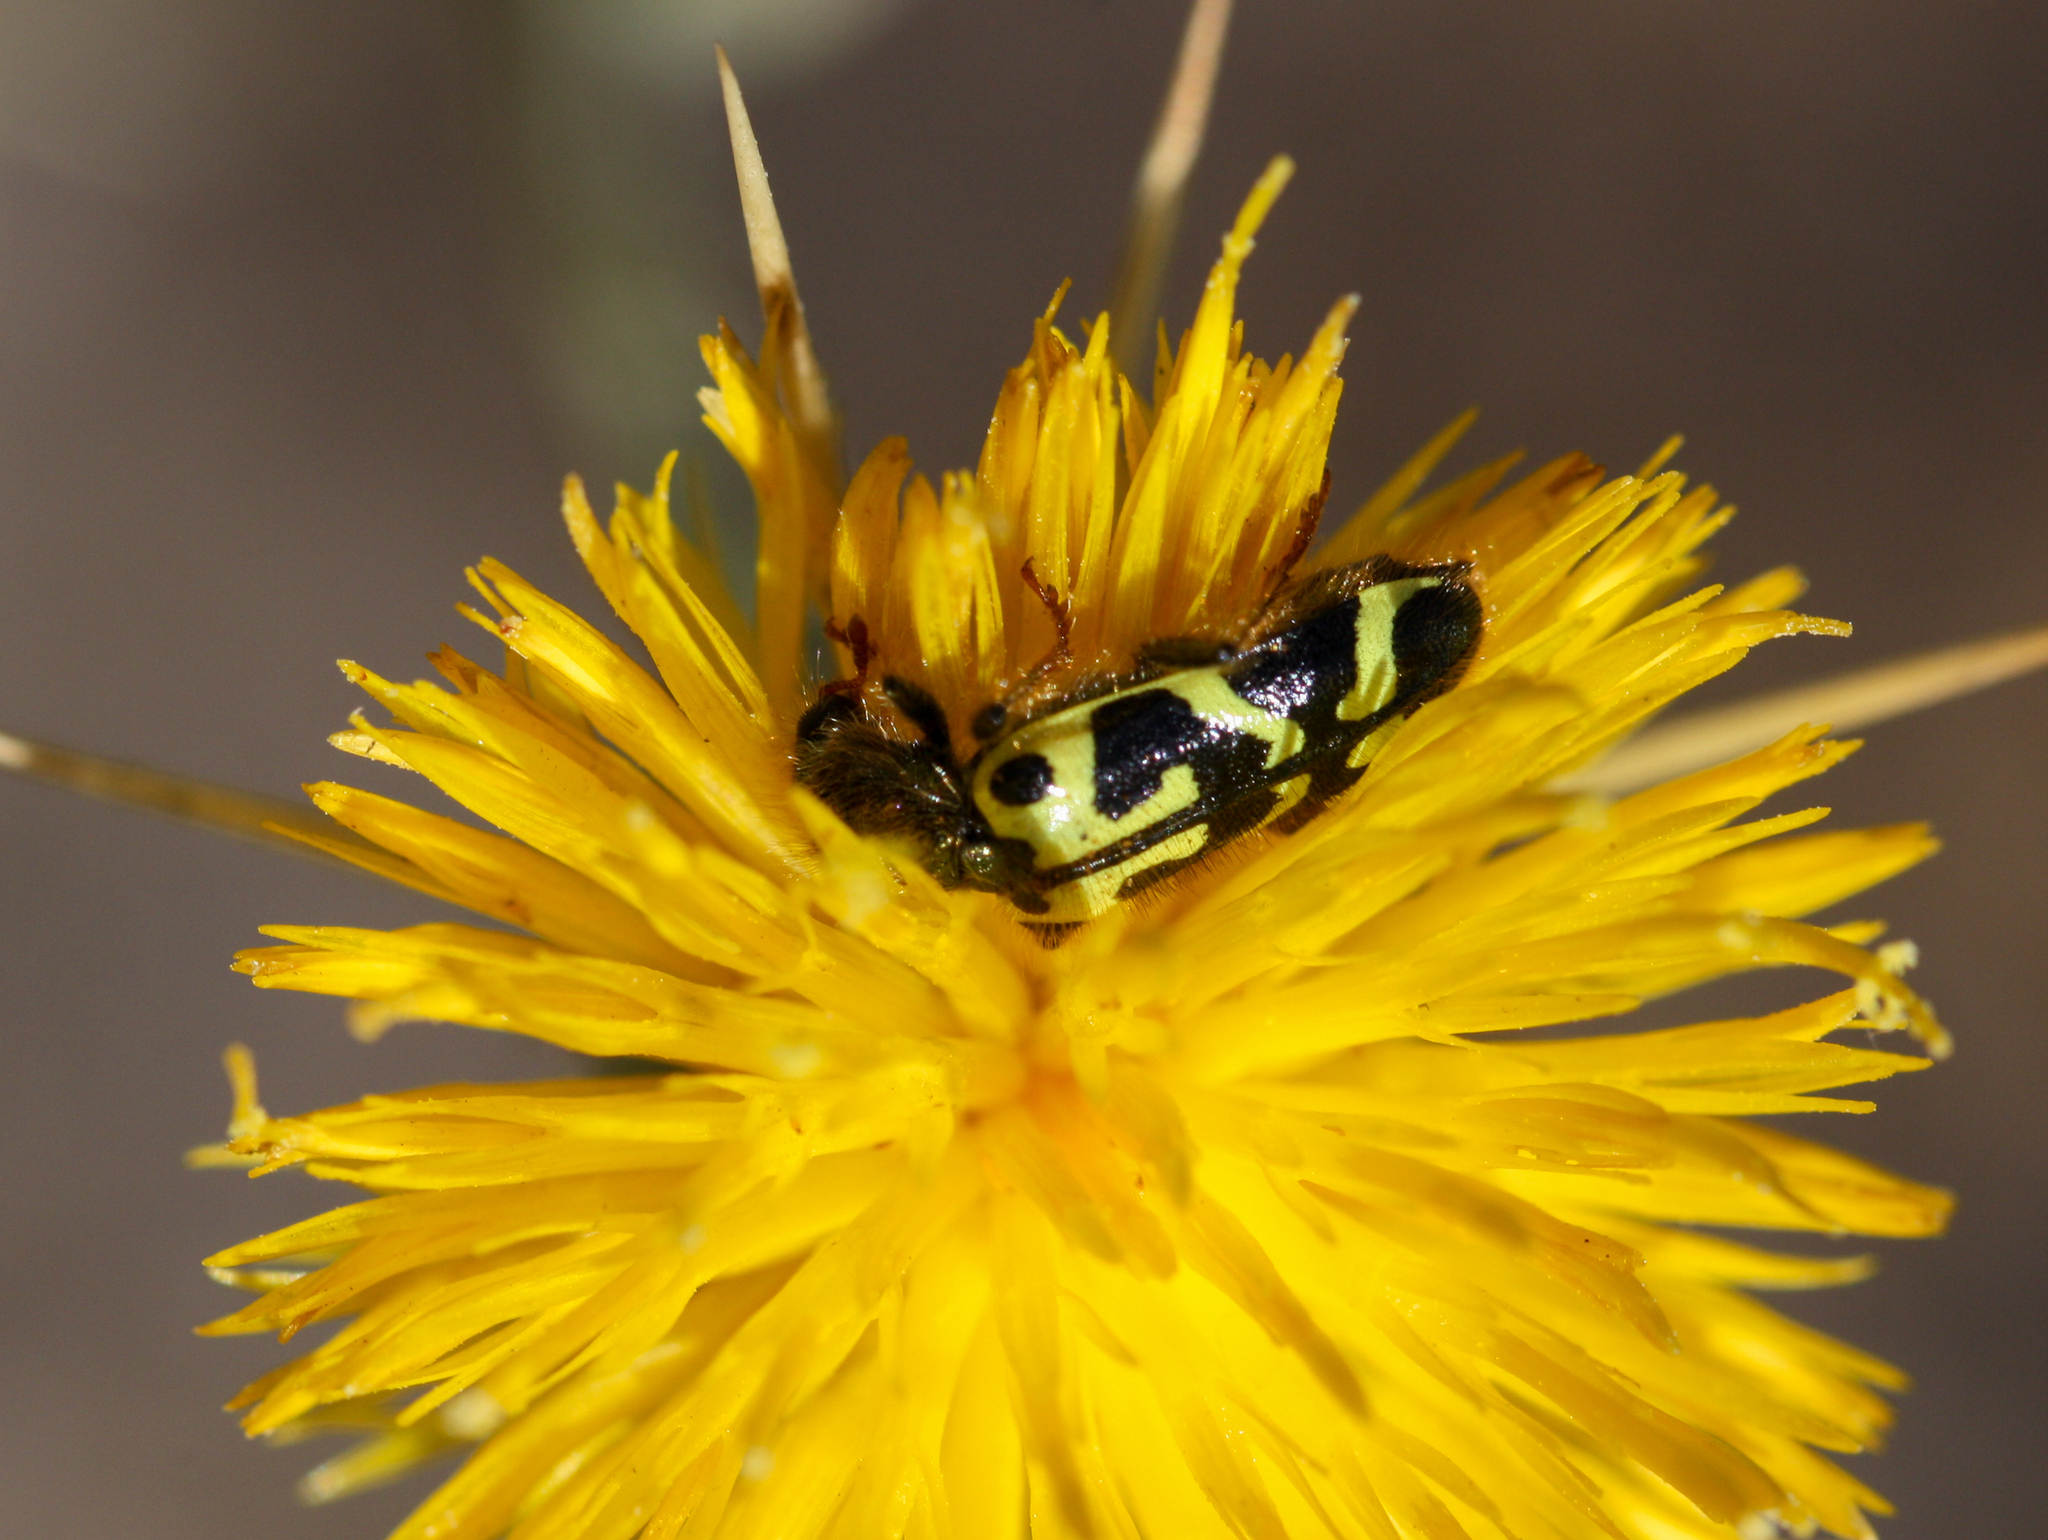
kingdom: Animalia
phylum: Arthropoda
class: Insecta
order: Coleoptera
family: Cleridae
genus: Trichodes
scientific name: Trichodes ornatus
